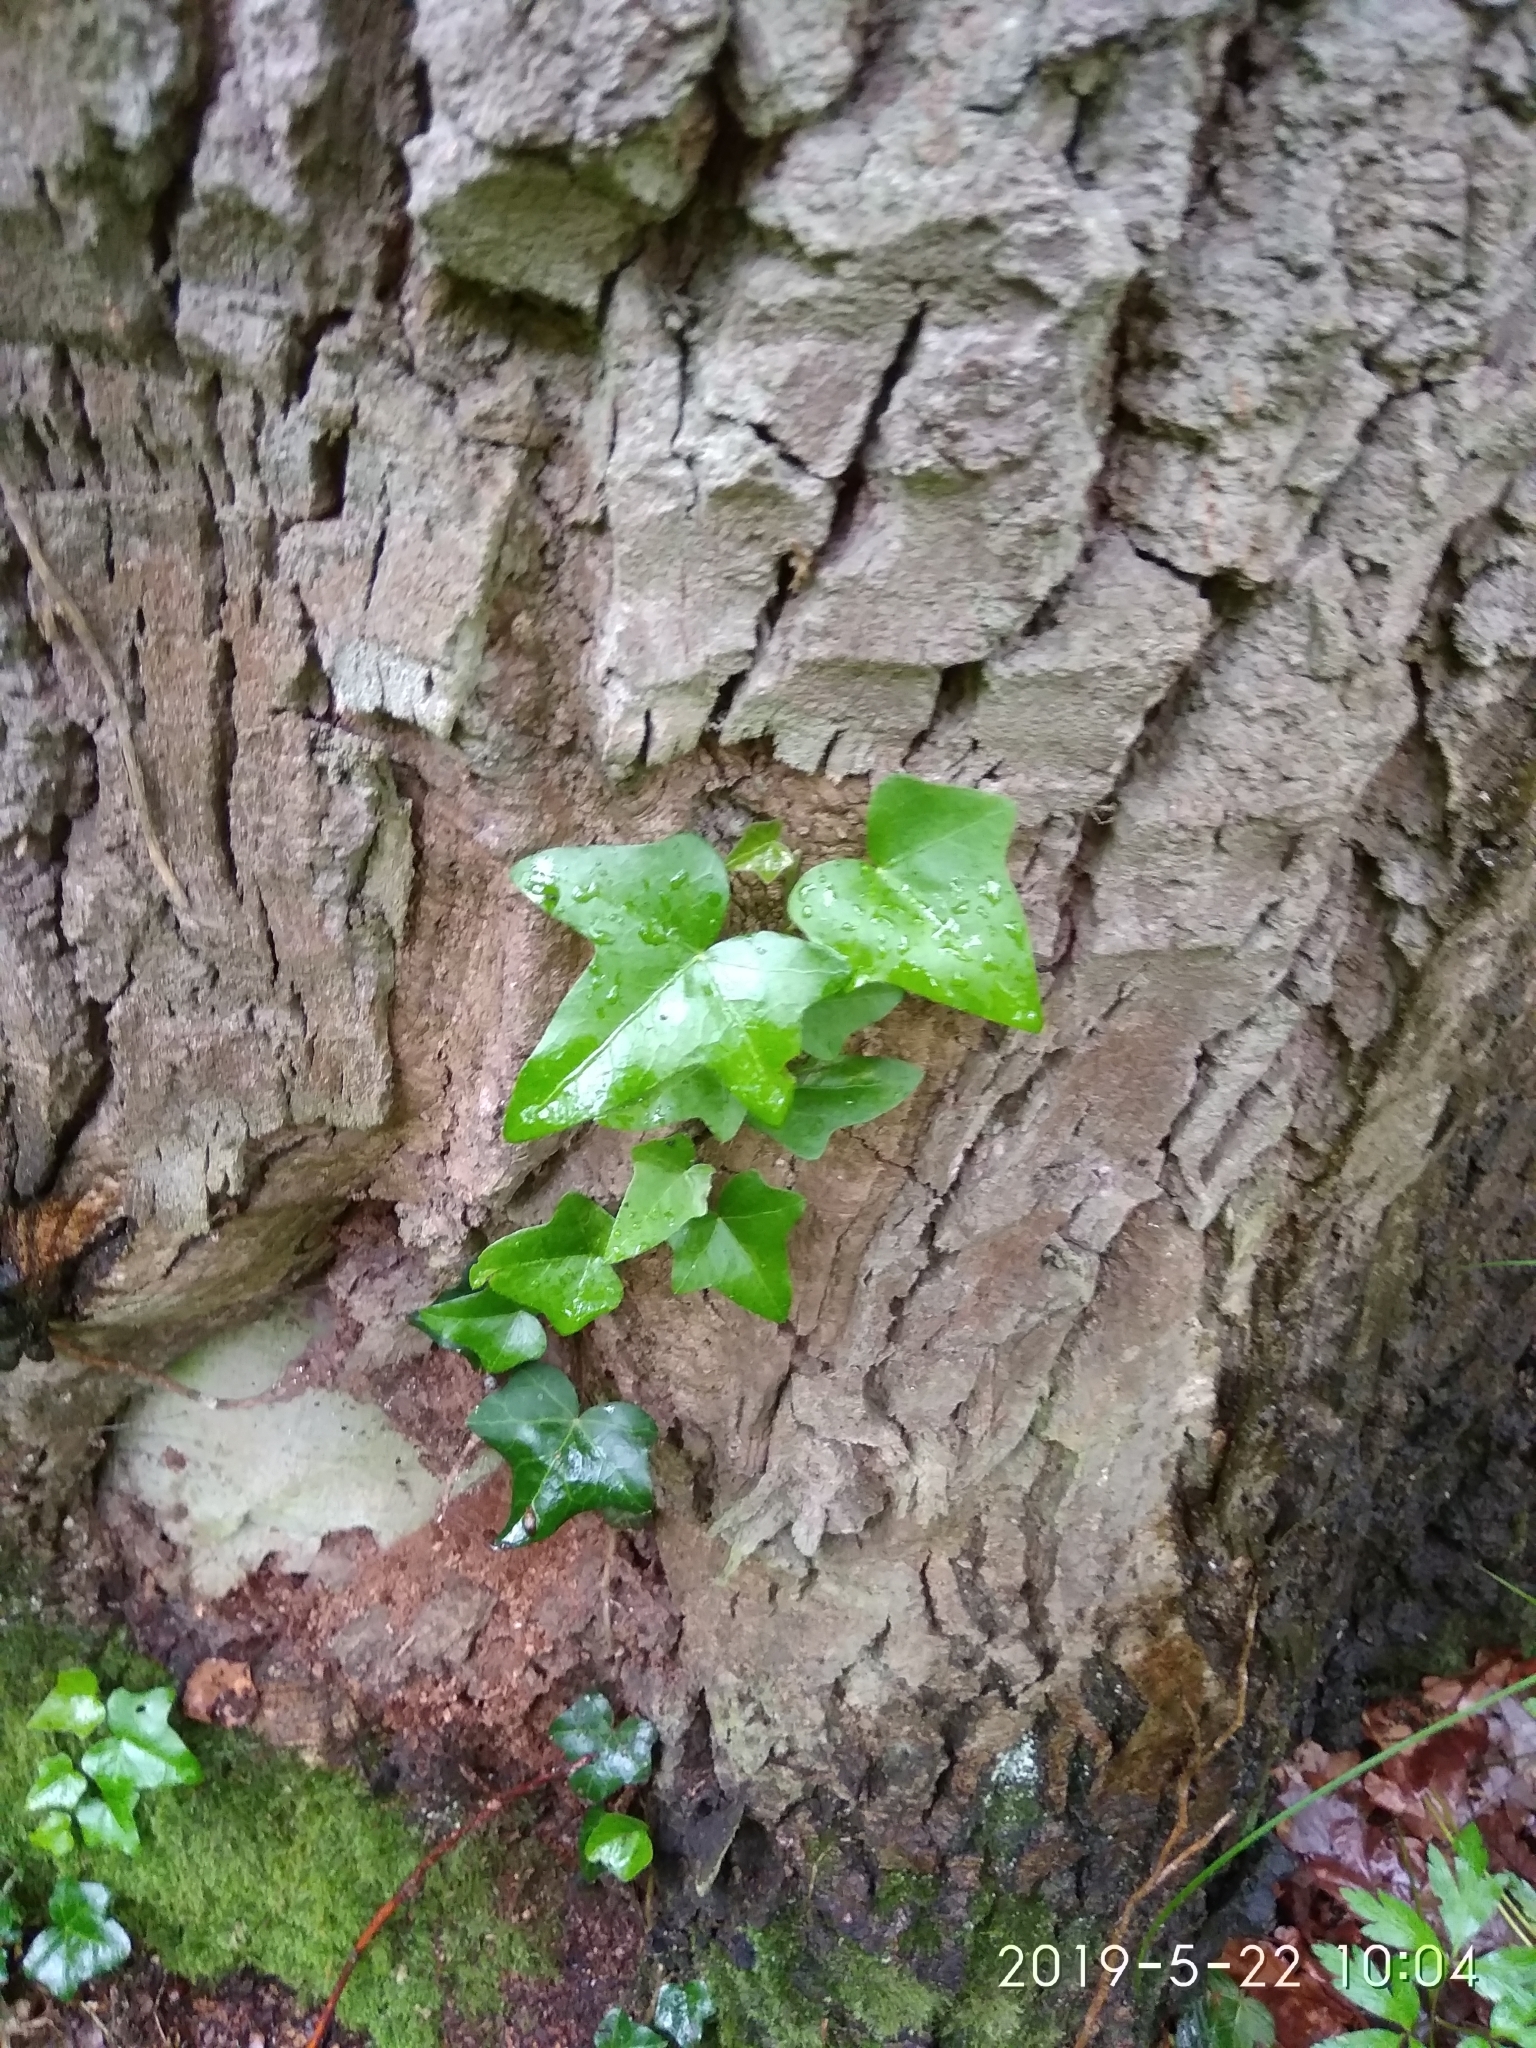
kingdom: Plantae
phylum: Tracheophyta
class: Magnoliopsida
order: Apiales
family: Araliaceae
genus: Hedera
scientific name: Hedera helix
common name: Ivy
